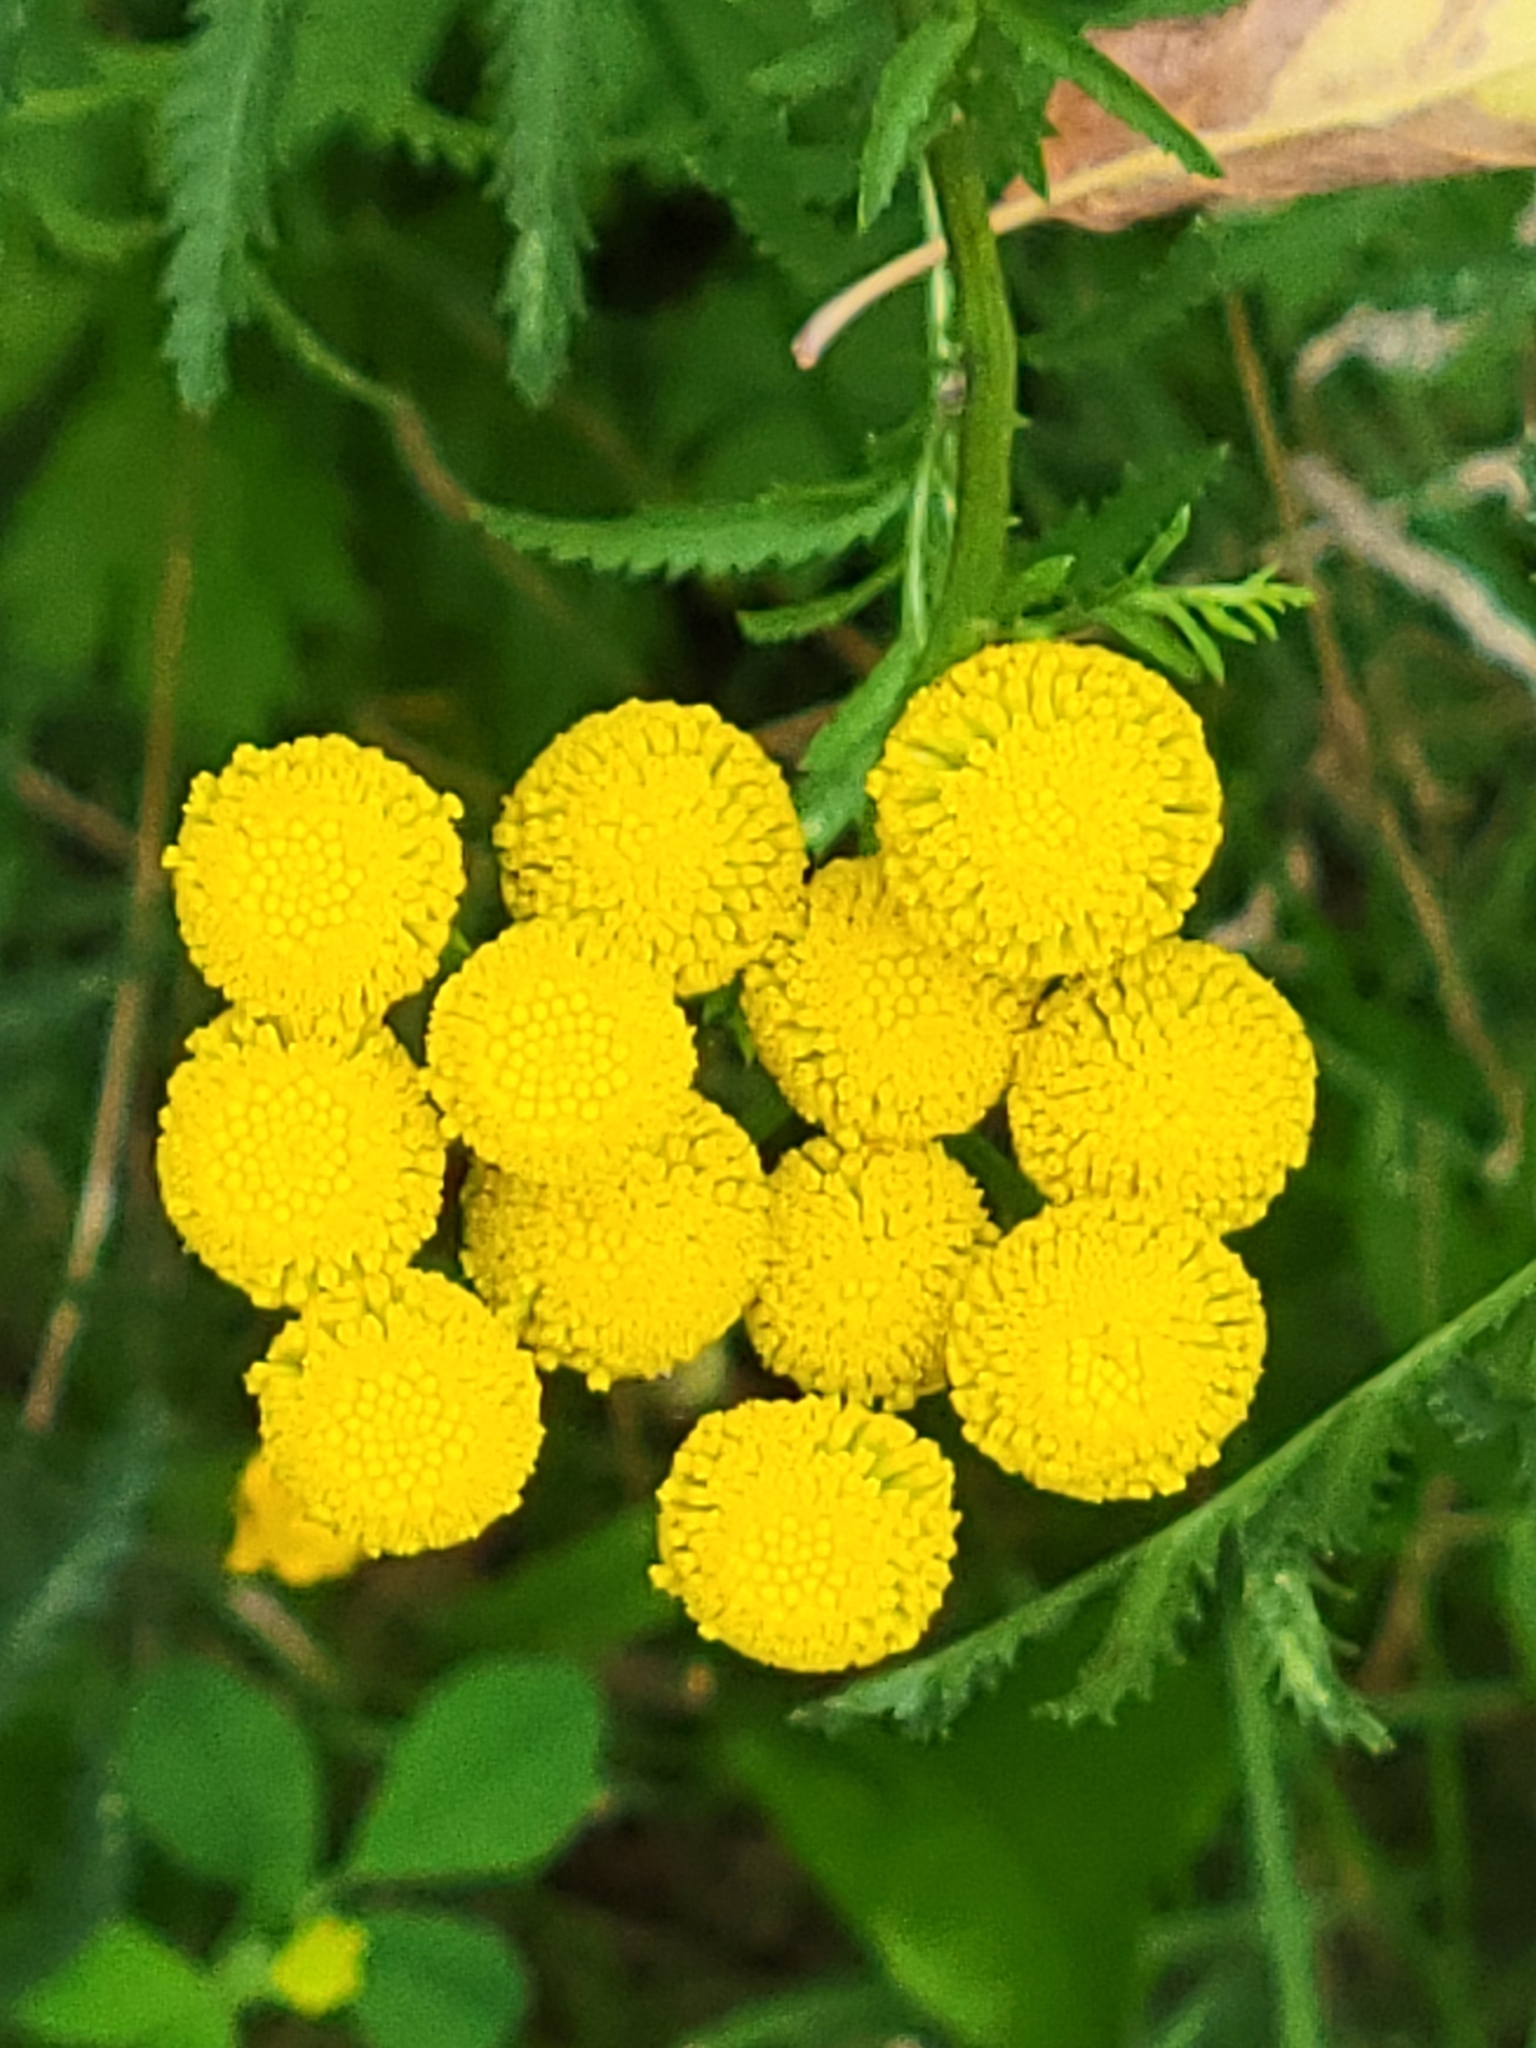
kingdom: Plantae
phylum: Tracheophyta
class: Magnoliopsida
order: Asterales
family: Asteraceae
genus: Tanacetum
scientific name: Tanacetum vulgare
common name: Common tansy
